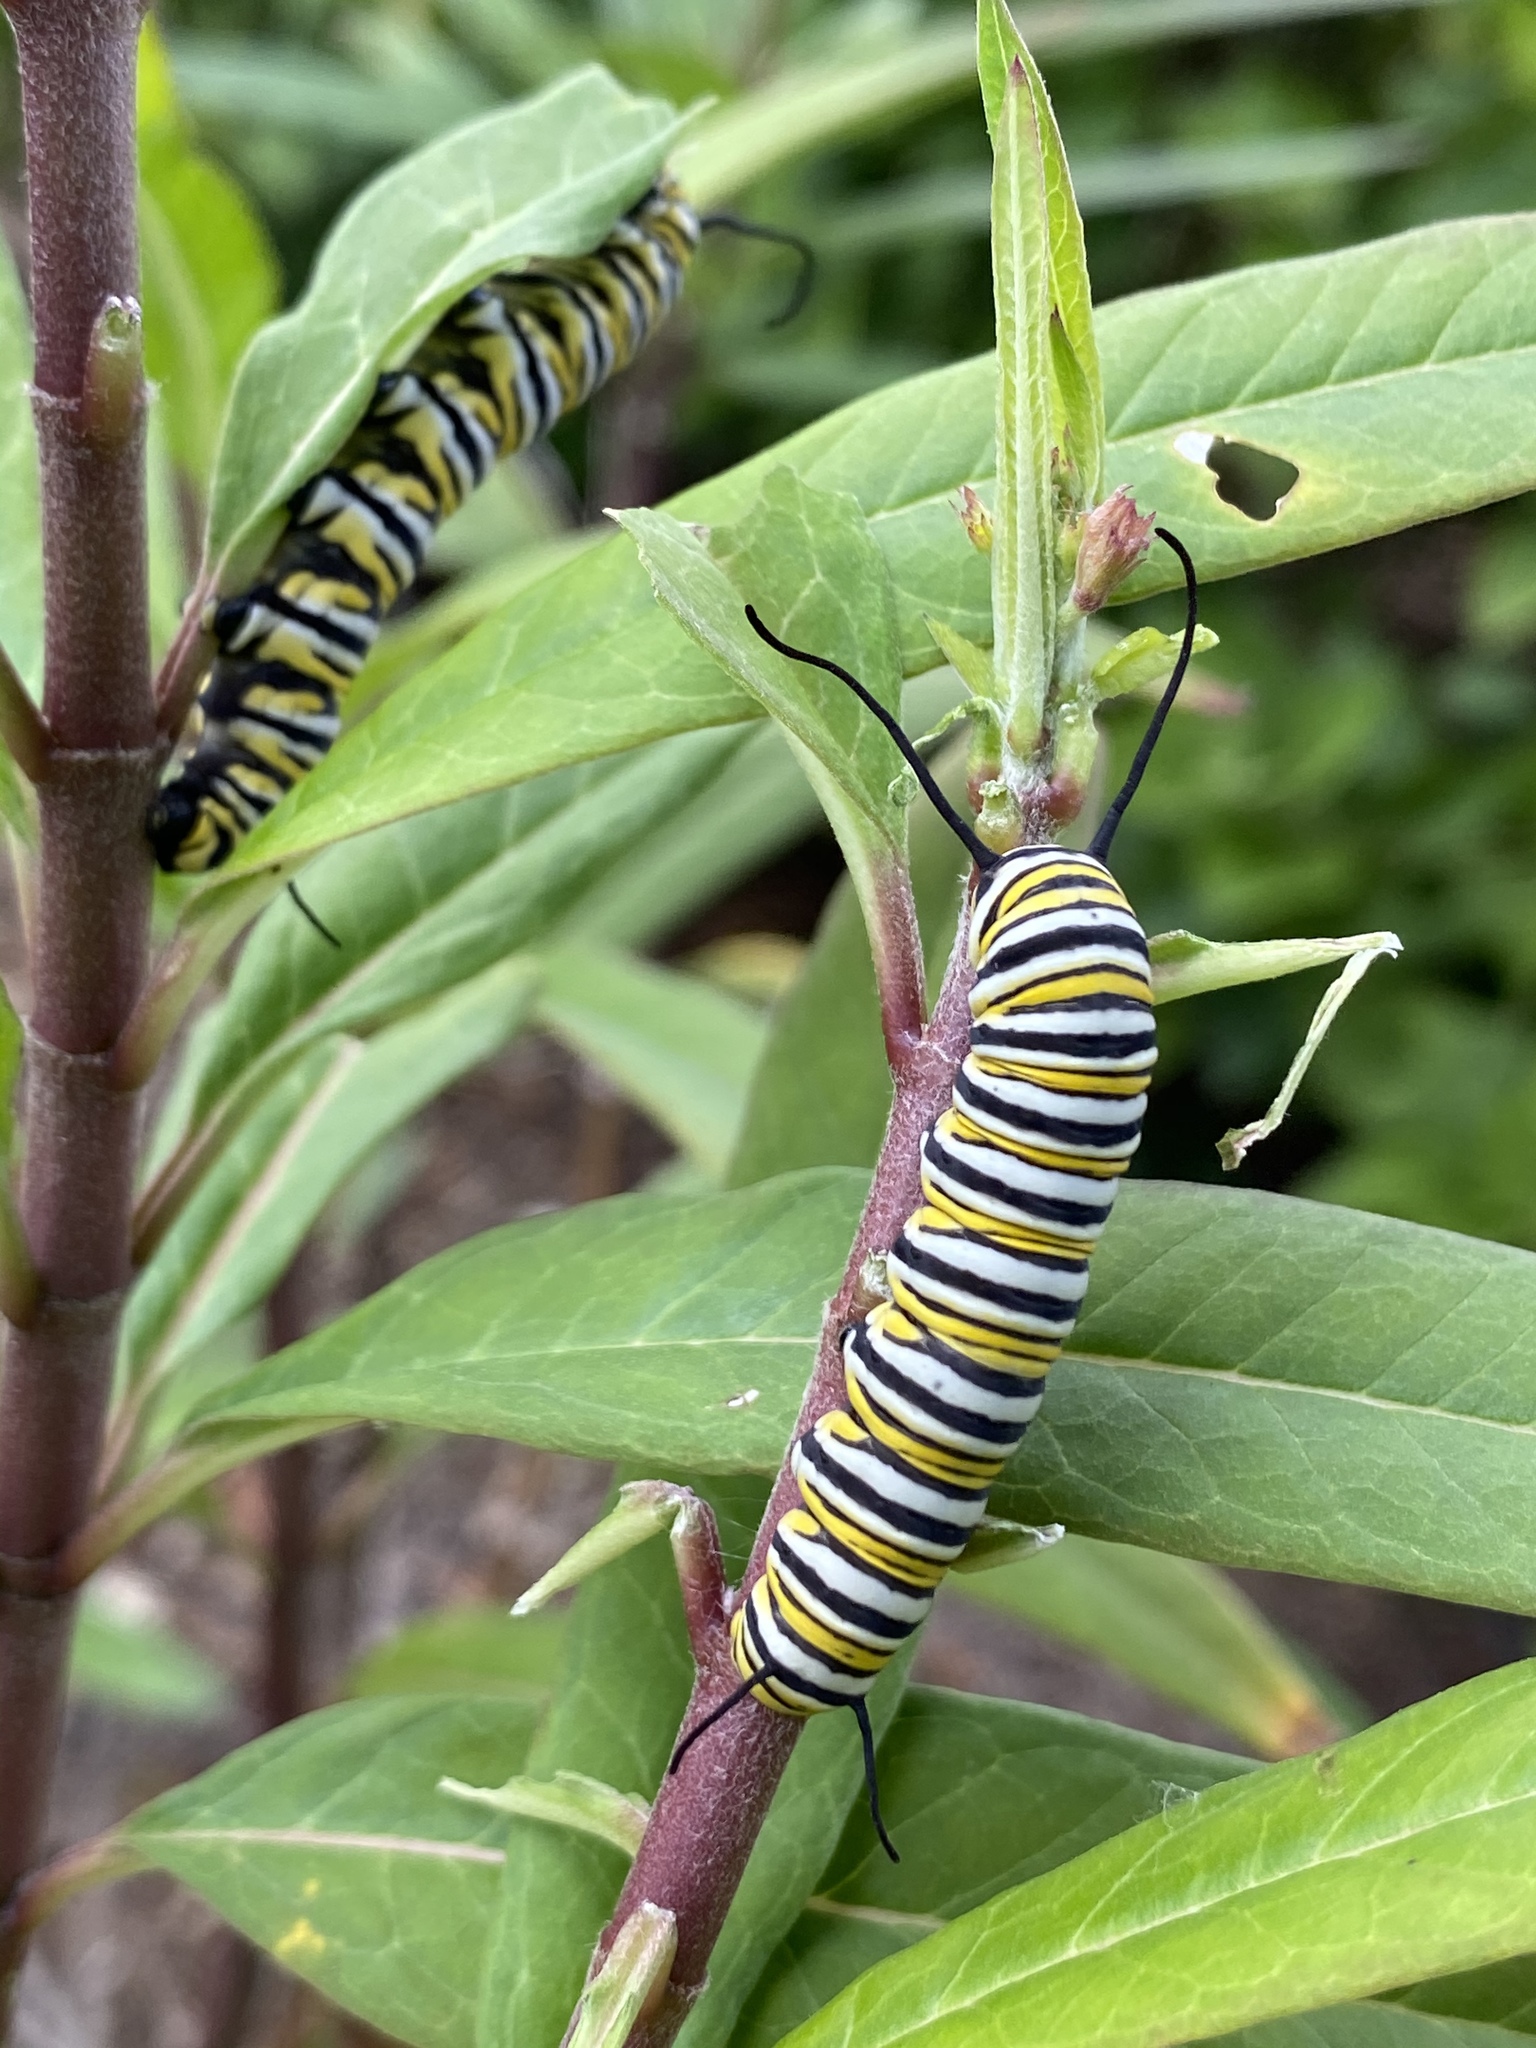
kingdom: Animalia
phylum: Arthropoda
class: Insecta
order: Lepidoptera
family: Nymphalidae
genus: Danaus
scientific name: Danaus plexippus
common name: Monarch
